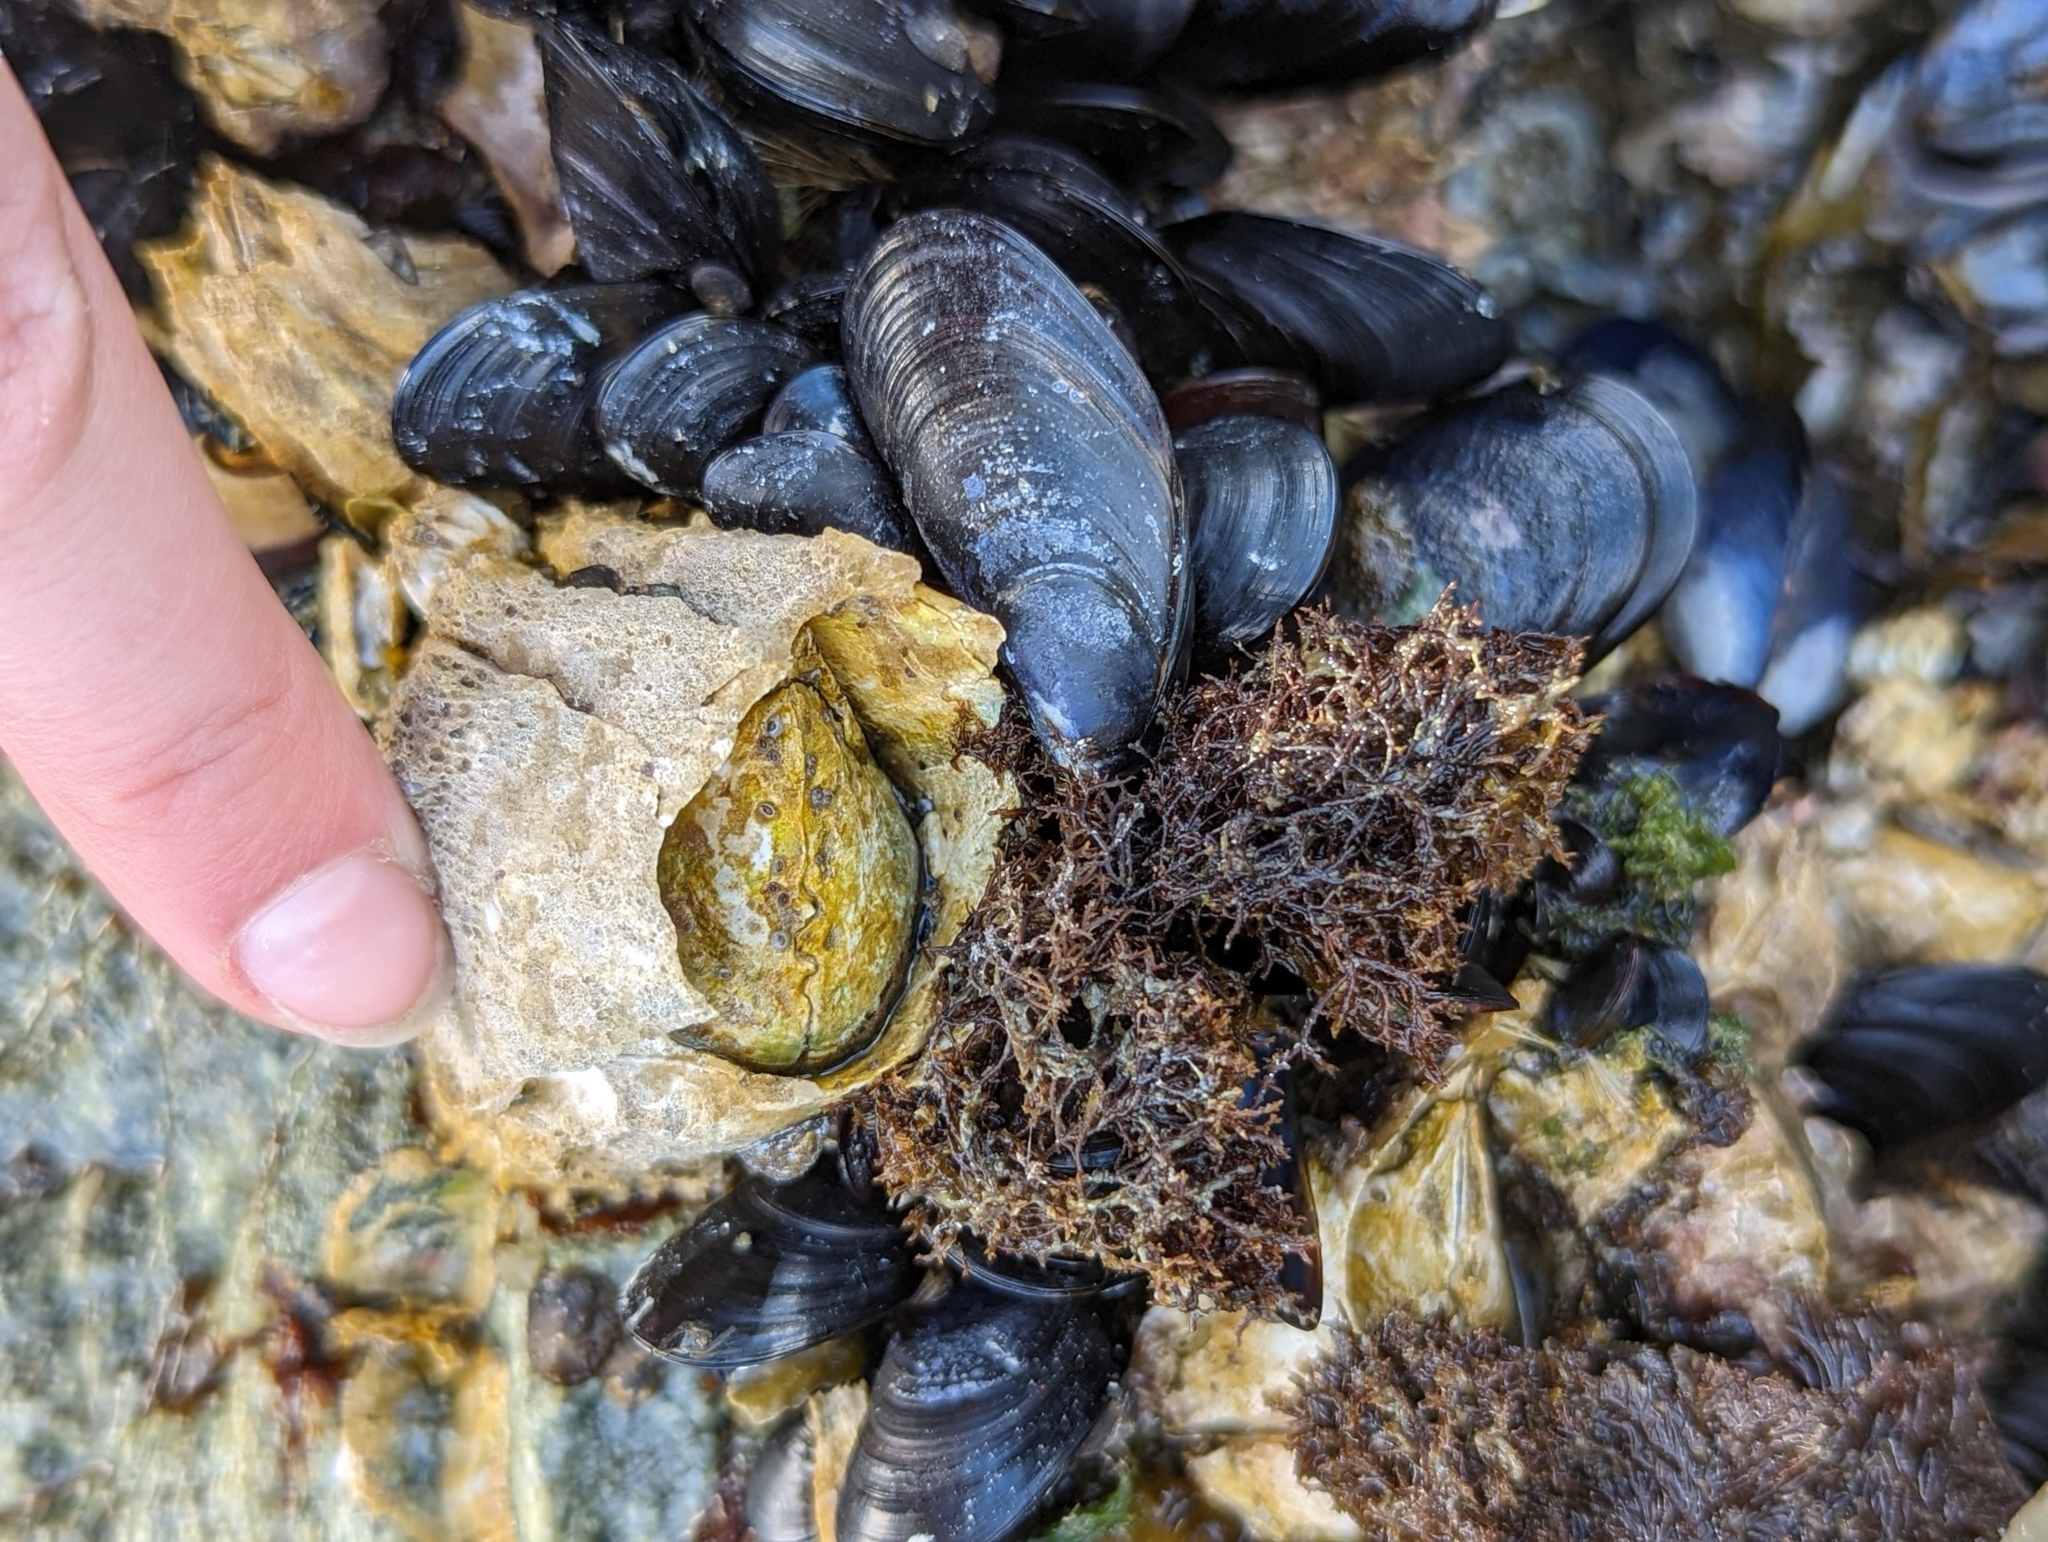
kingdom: Animalia
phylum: Arthropoda
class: Maxillopoda
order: Sessilia
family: Archaeobalanidae
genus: Semibalanus
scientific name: Semibalanus cariosus
